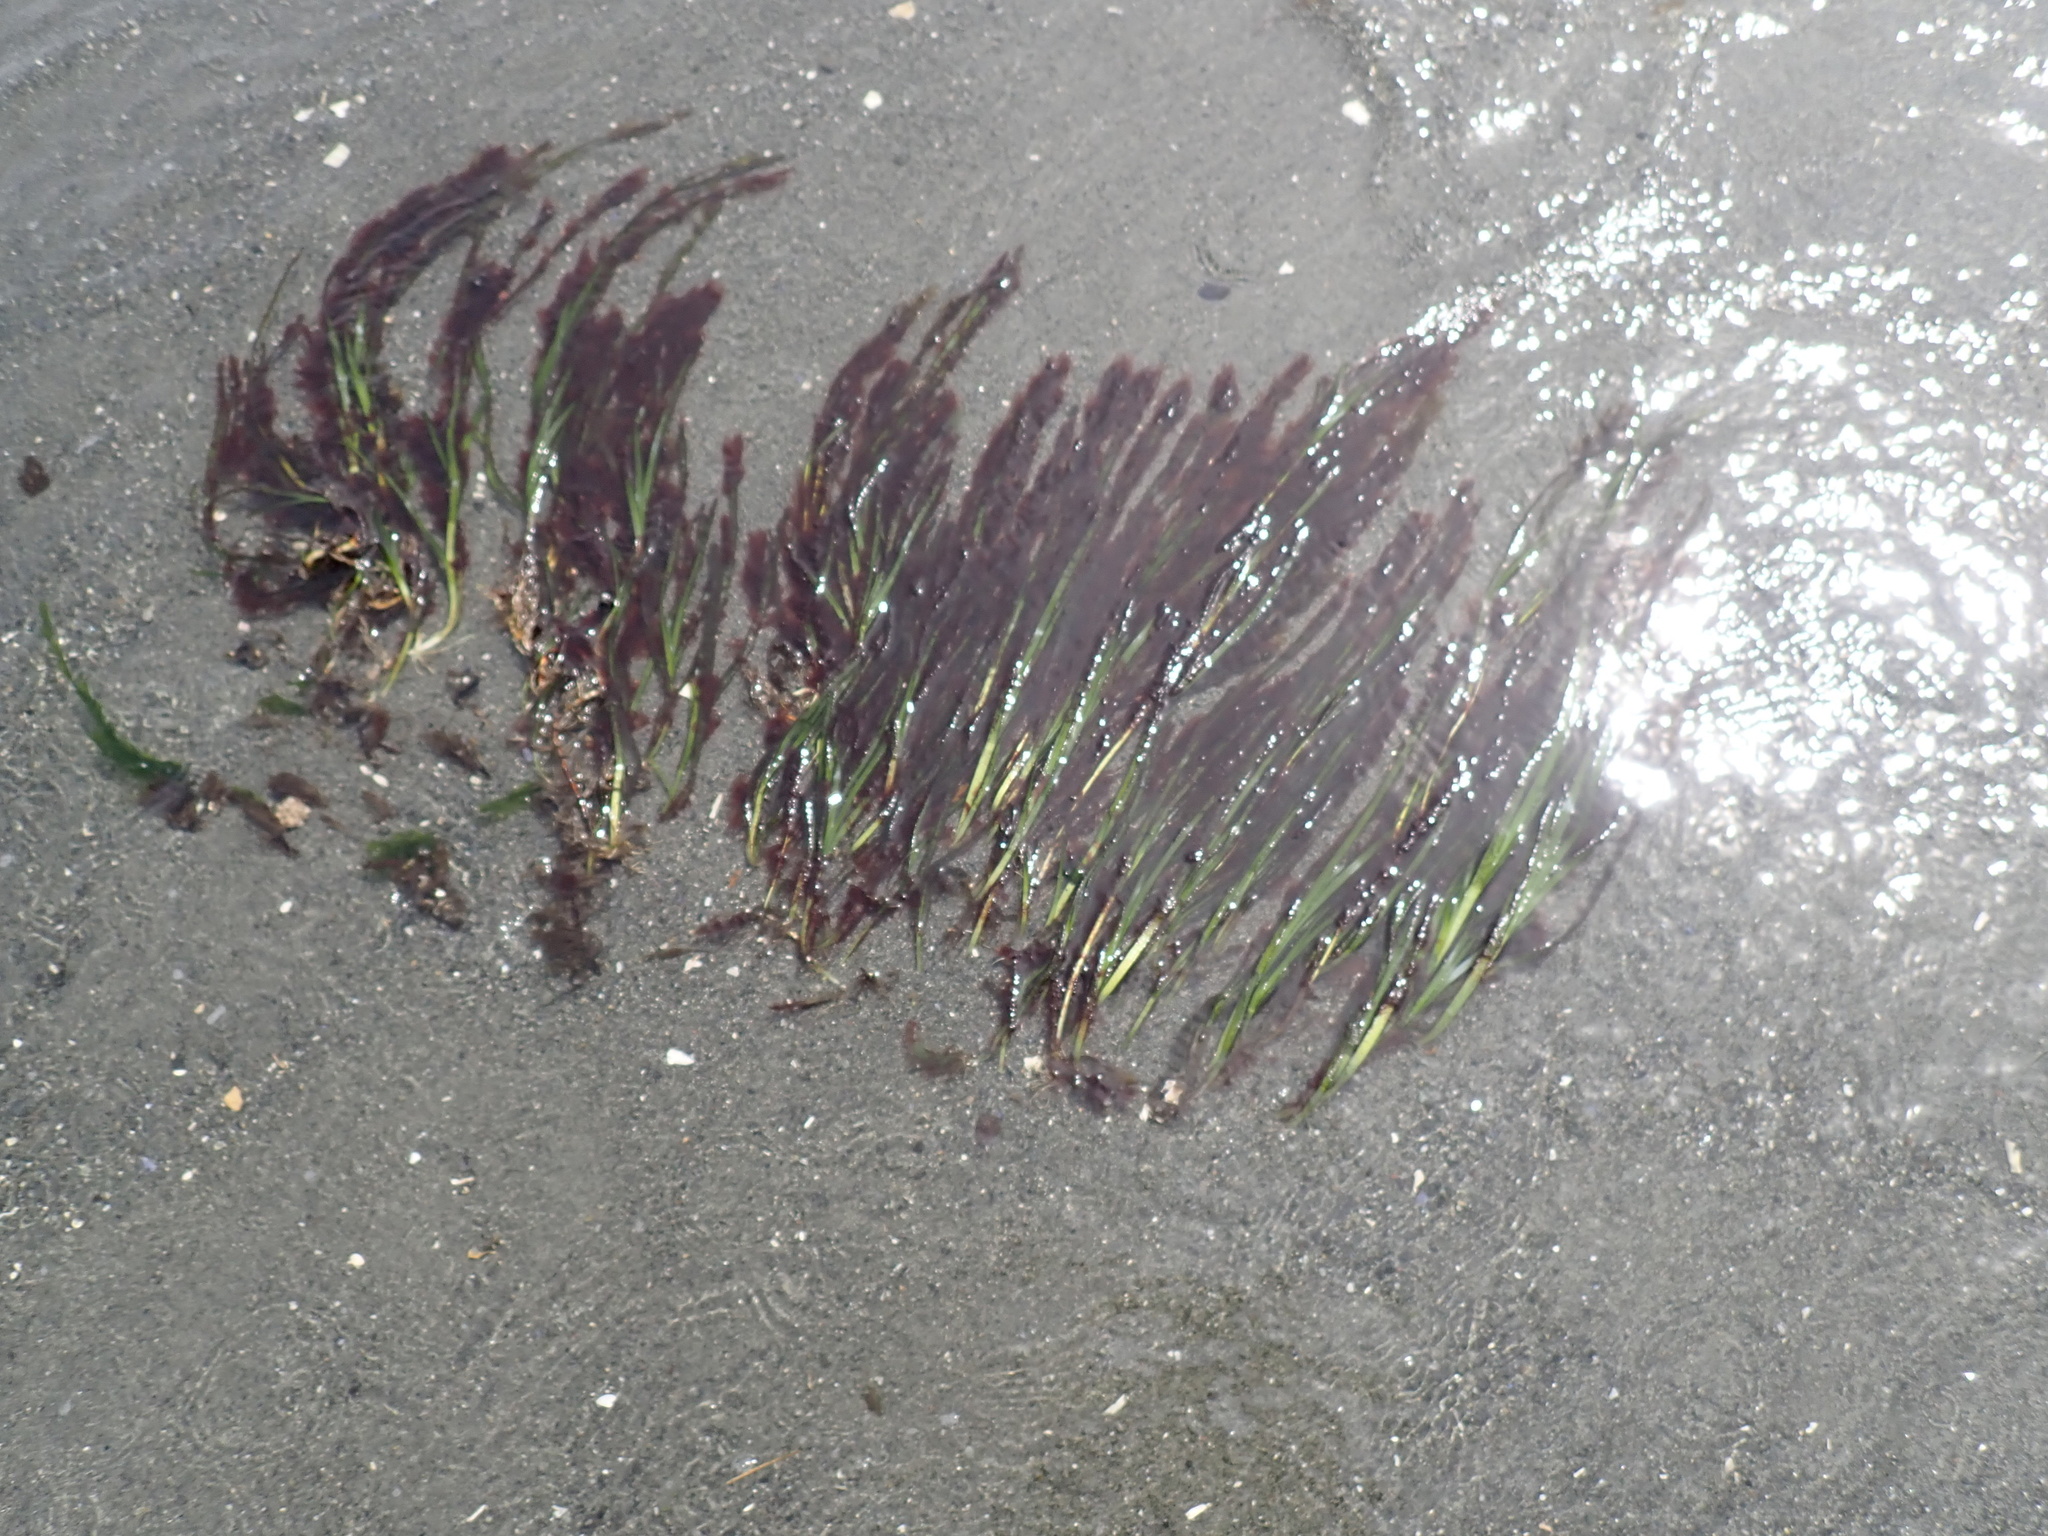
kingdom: Plantae
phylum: Tracheophyta
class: Liliopsida
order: Alismatales
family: Zosteraceae
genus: Zostera
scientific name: Zostera marina
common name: Eelgrass
